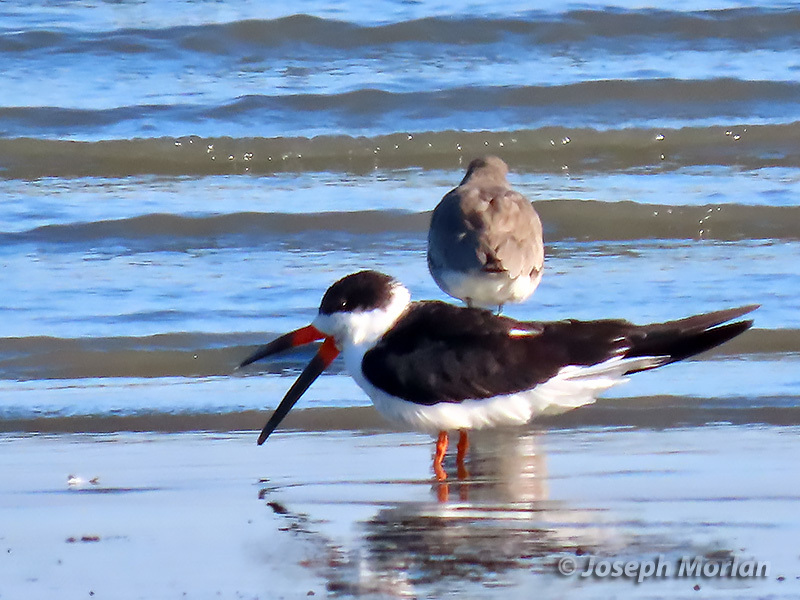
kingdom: Animalia
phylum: Chordata
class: Aves
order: Charadriiformes
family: Laridae
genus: Rynchops
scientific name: Rynchops niger
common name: Black skimmer
